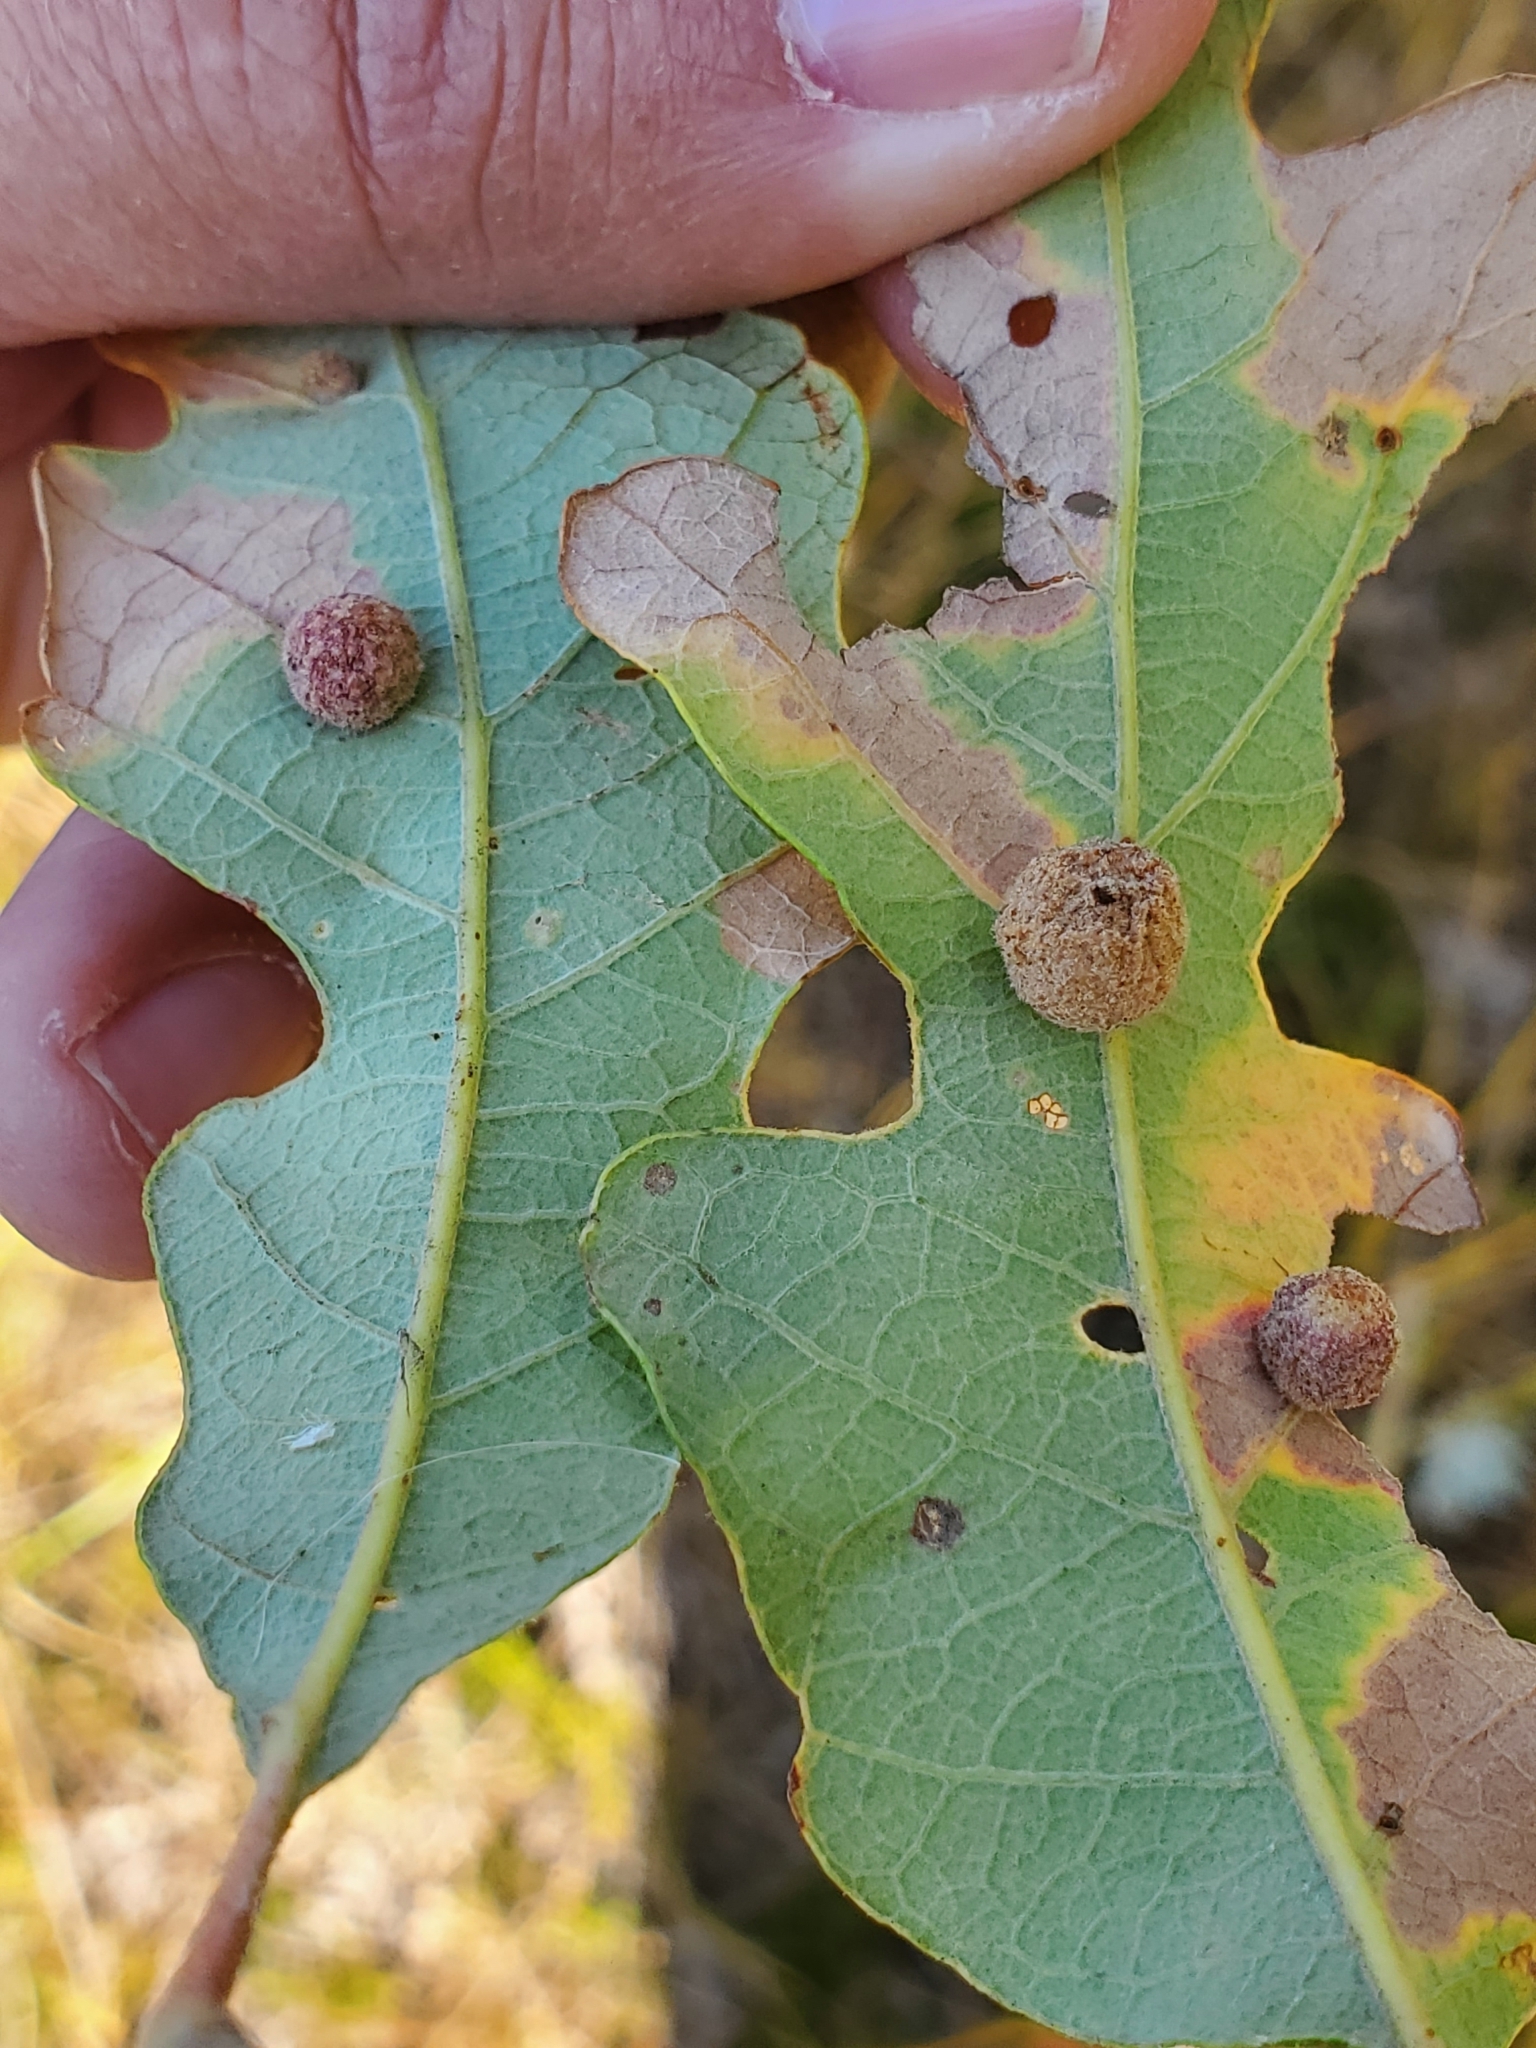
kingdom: Animalia
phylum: Arthropoda
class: Insecta
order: Hymenoptera
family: Cynipidae
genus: Philonix
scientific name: Philonix fulvicollis
